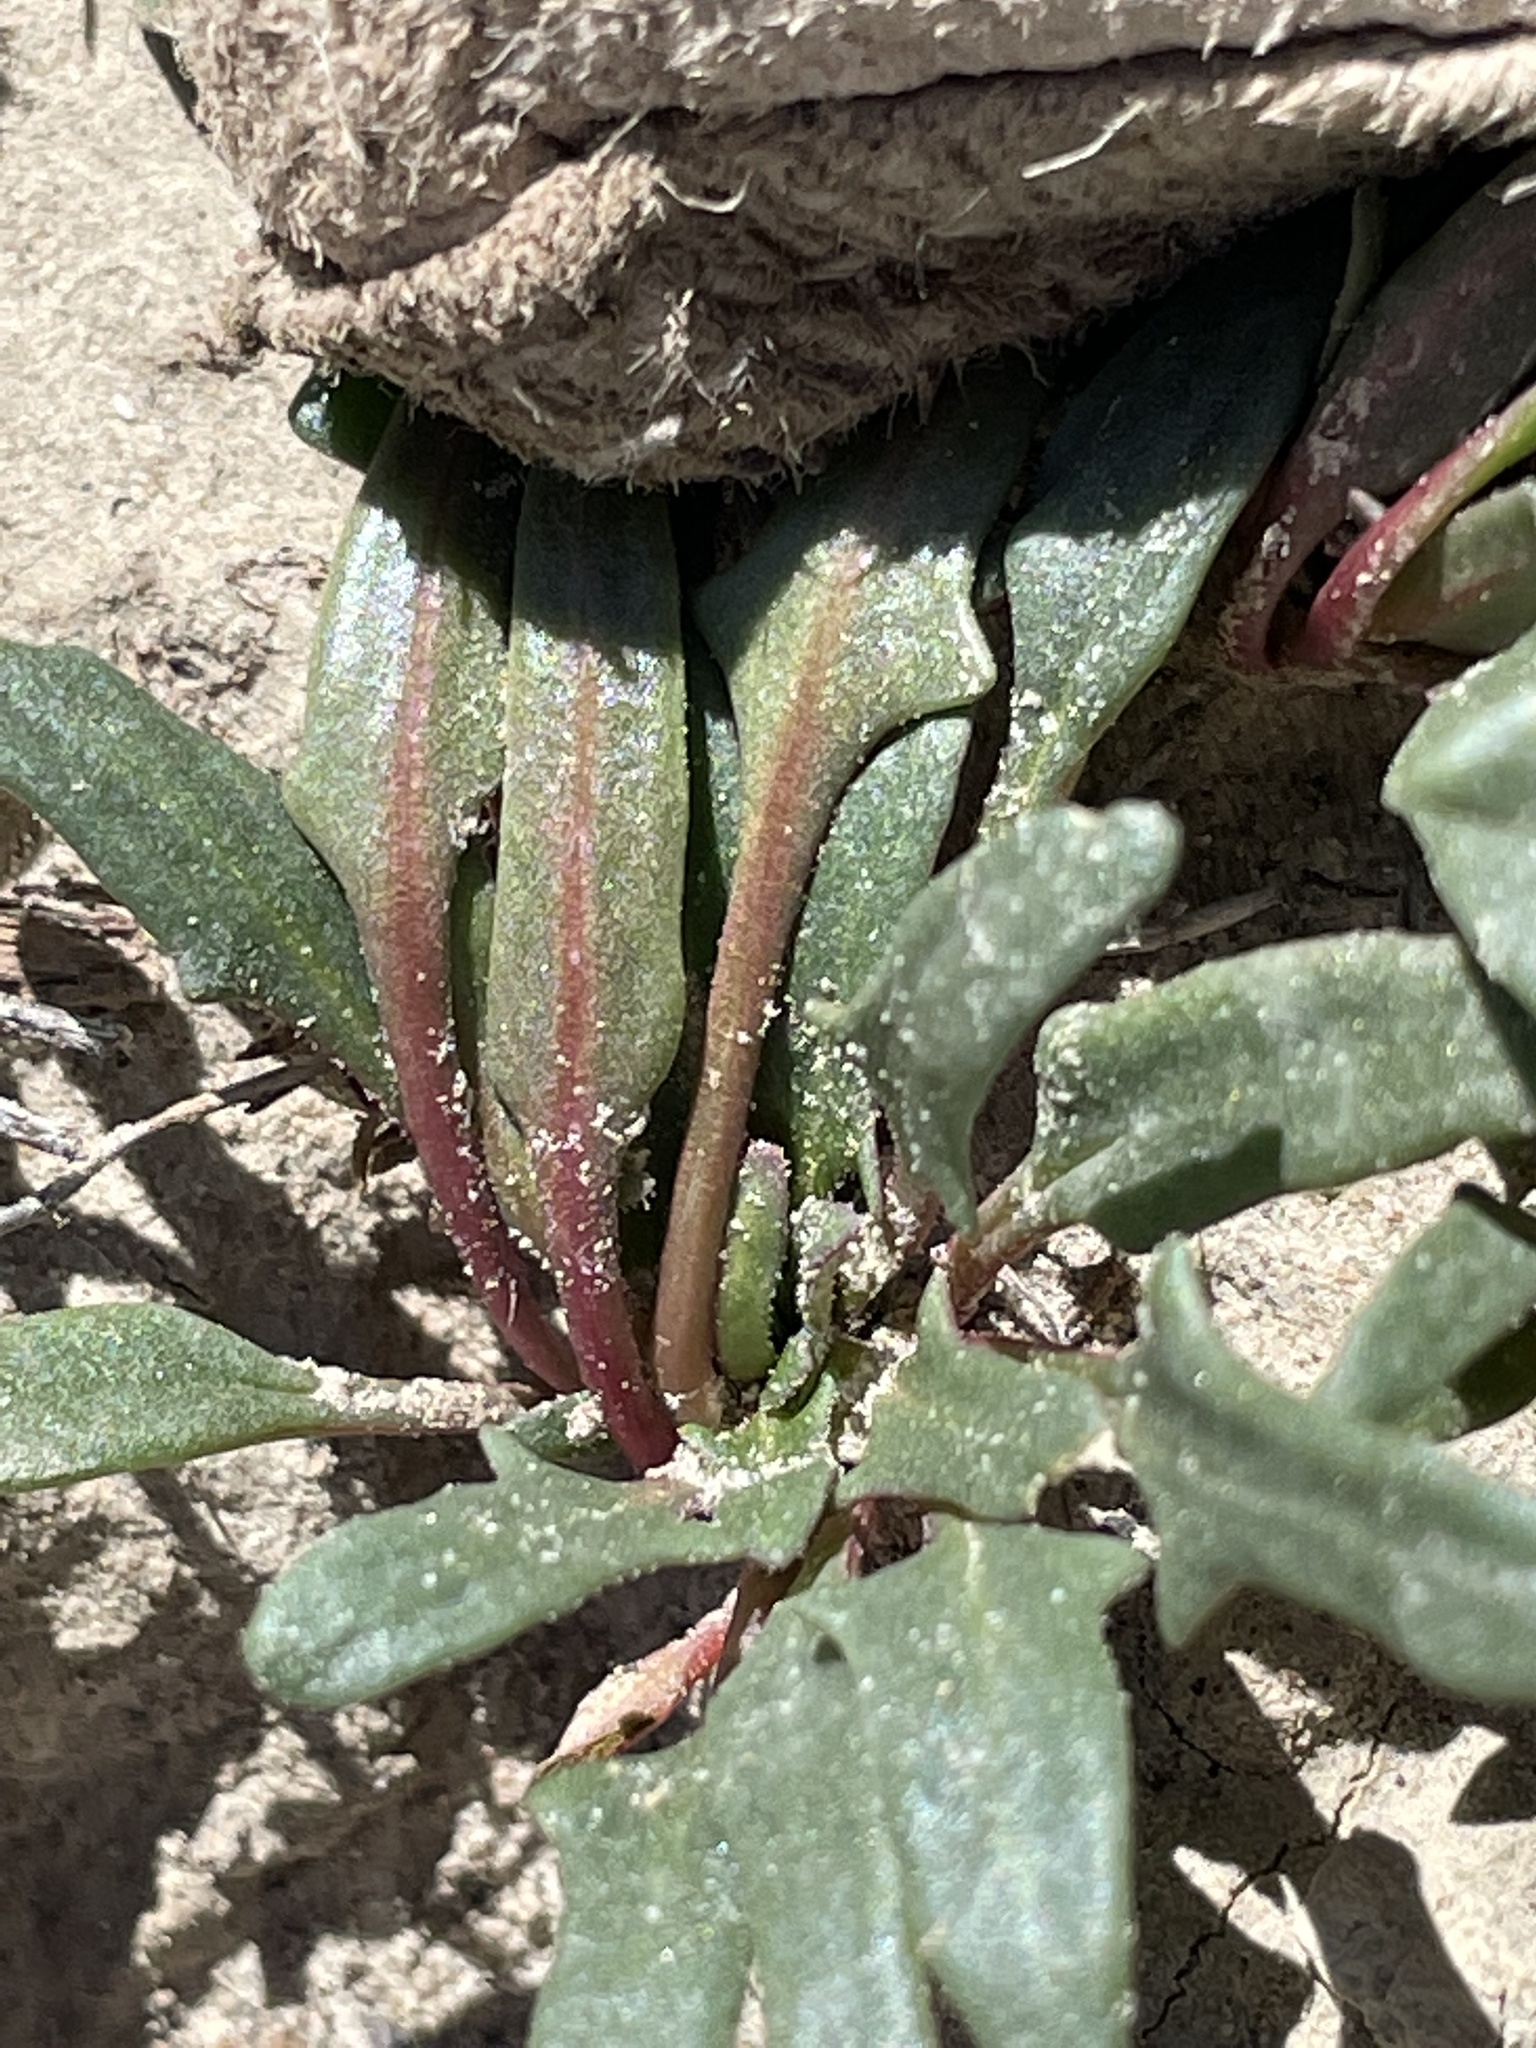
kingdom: Plantae
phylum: Tracheophyta
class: Magnoliopsida
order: Caryophyllales
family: Amaranthaceae
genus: Blitum
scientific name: Blitum nuttallianum
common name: Poverty-weed
